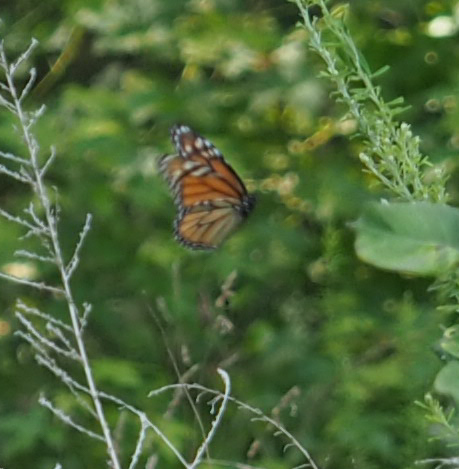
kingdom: Animalia
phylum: Arthropoda
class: Insecta
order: Lepidoptera
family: Nymphalidae
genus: Danaus
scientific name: Danaus plexippus
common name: Monarch
